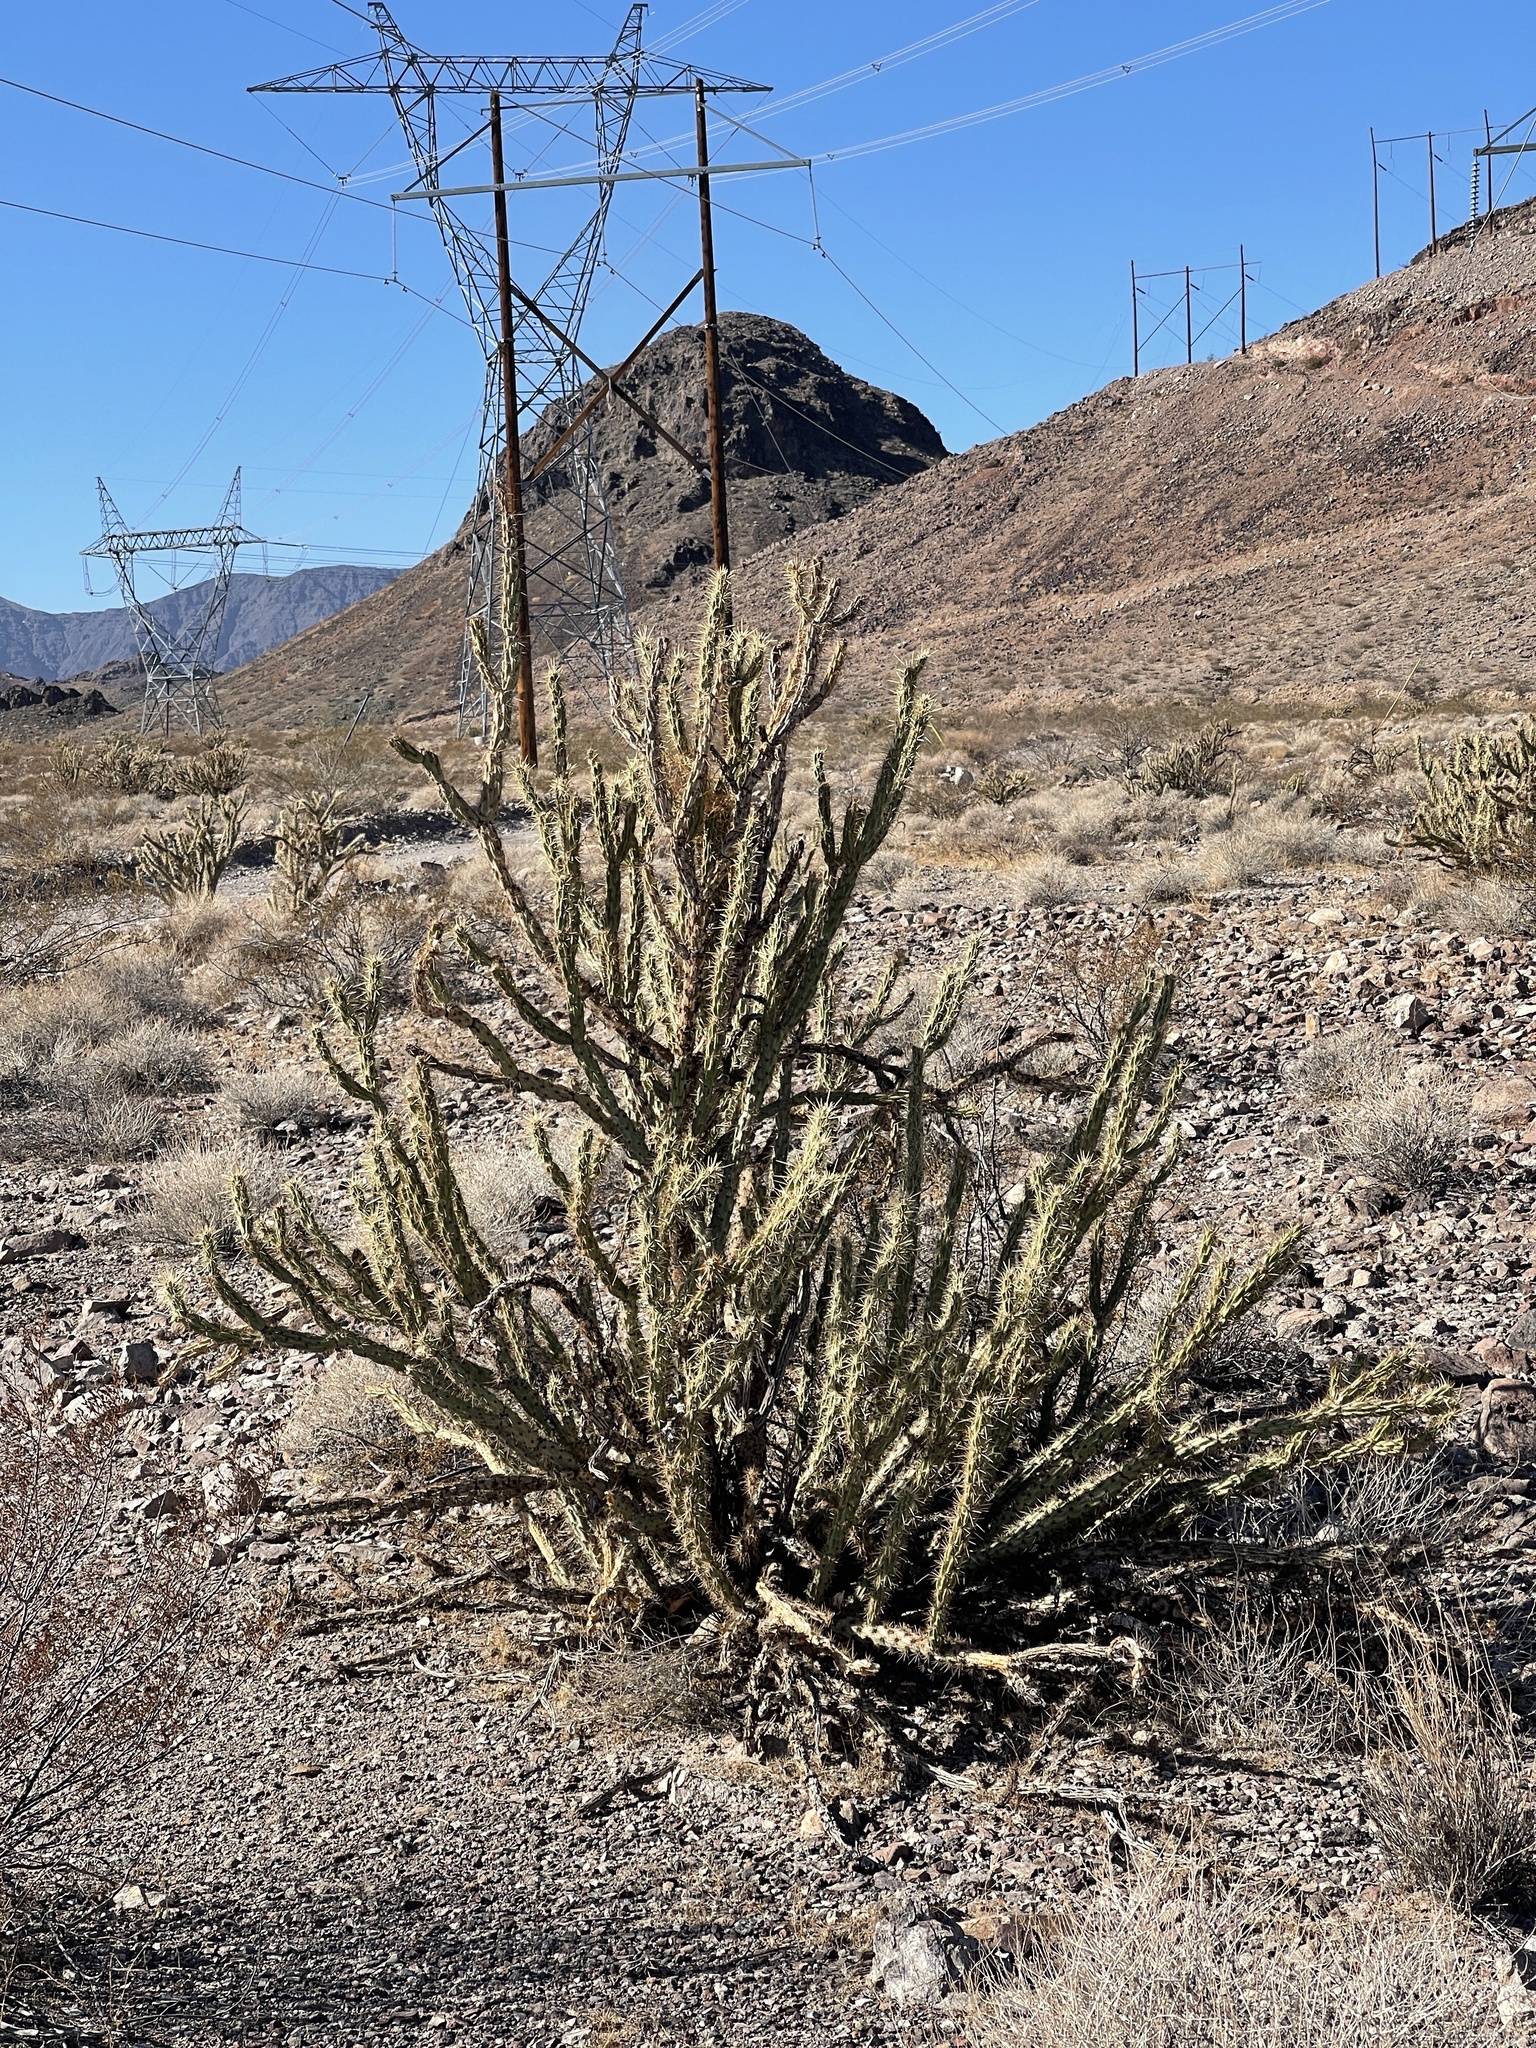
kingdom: Plantae
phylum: Tracheophyta
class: Magnoliopsida
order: Caryophyllales
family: Cactaceae
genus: Cylindropuntia
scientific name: Cylindropuntia acanthocarpa
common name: Buckhorn cholla
